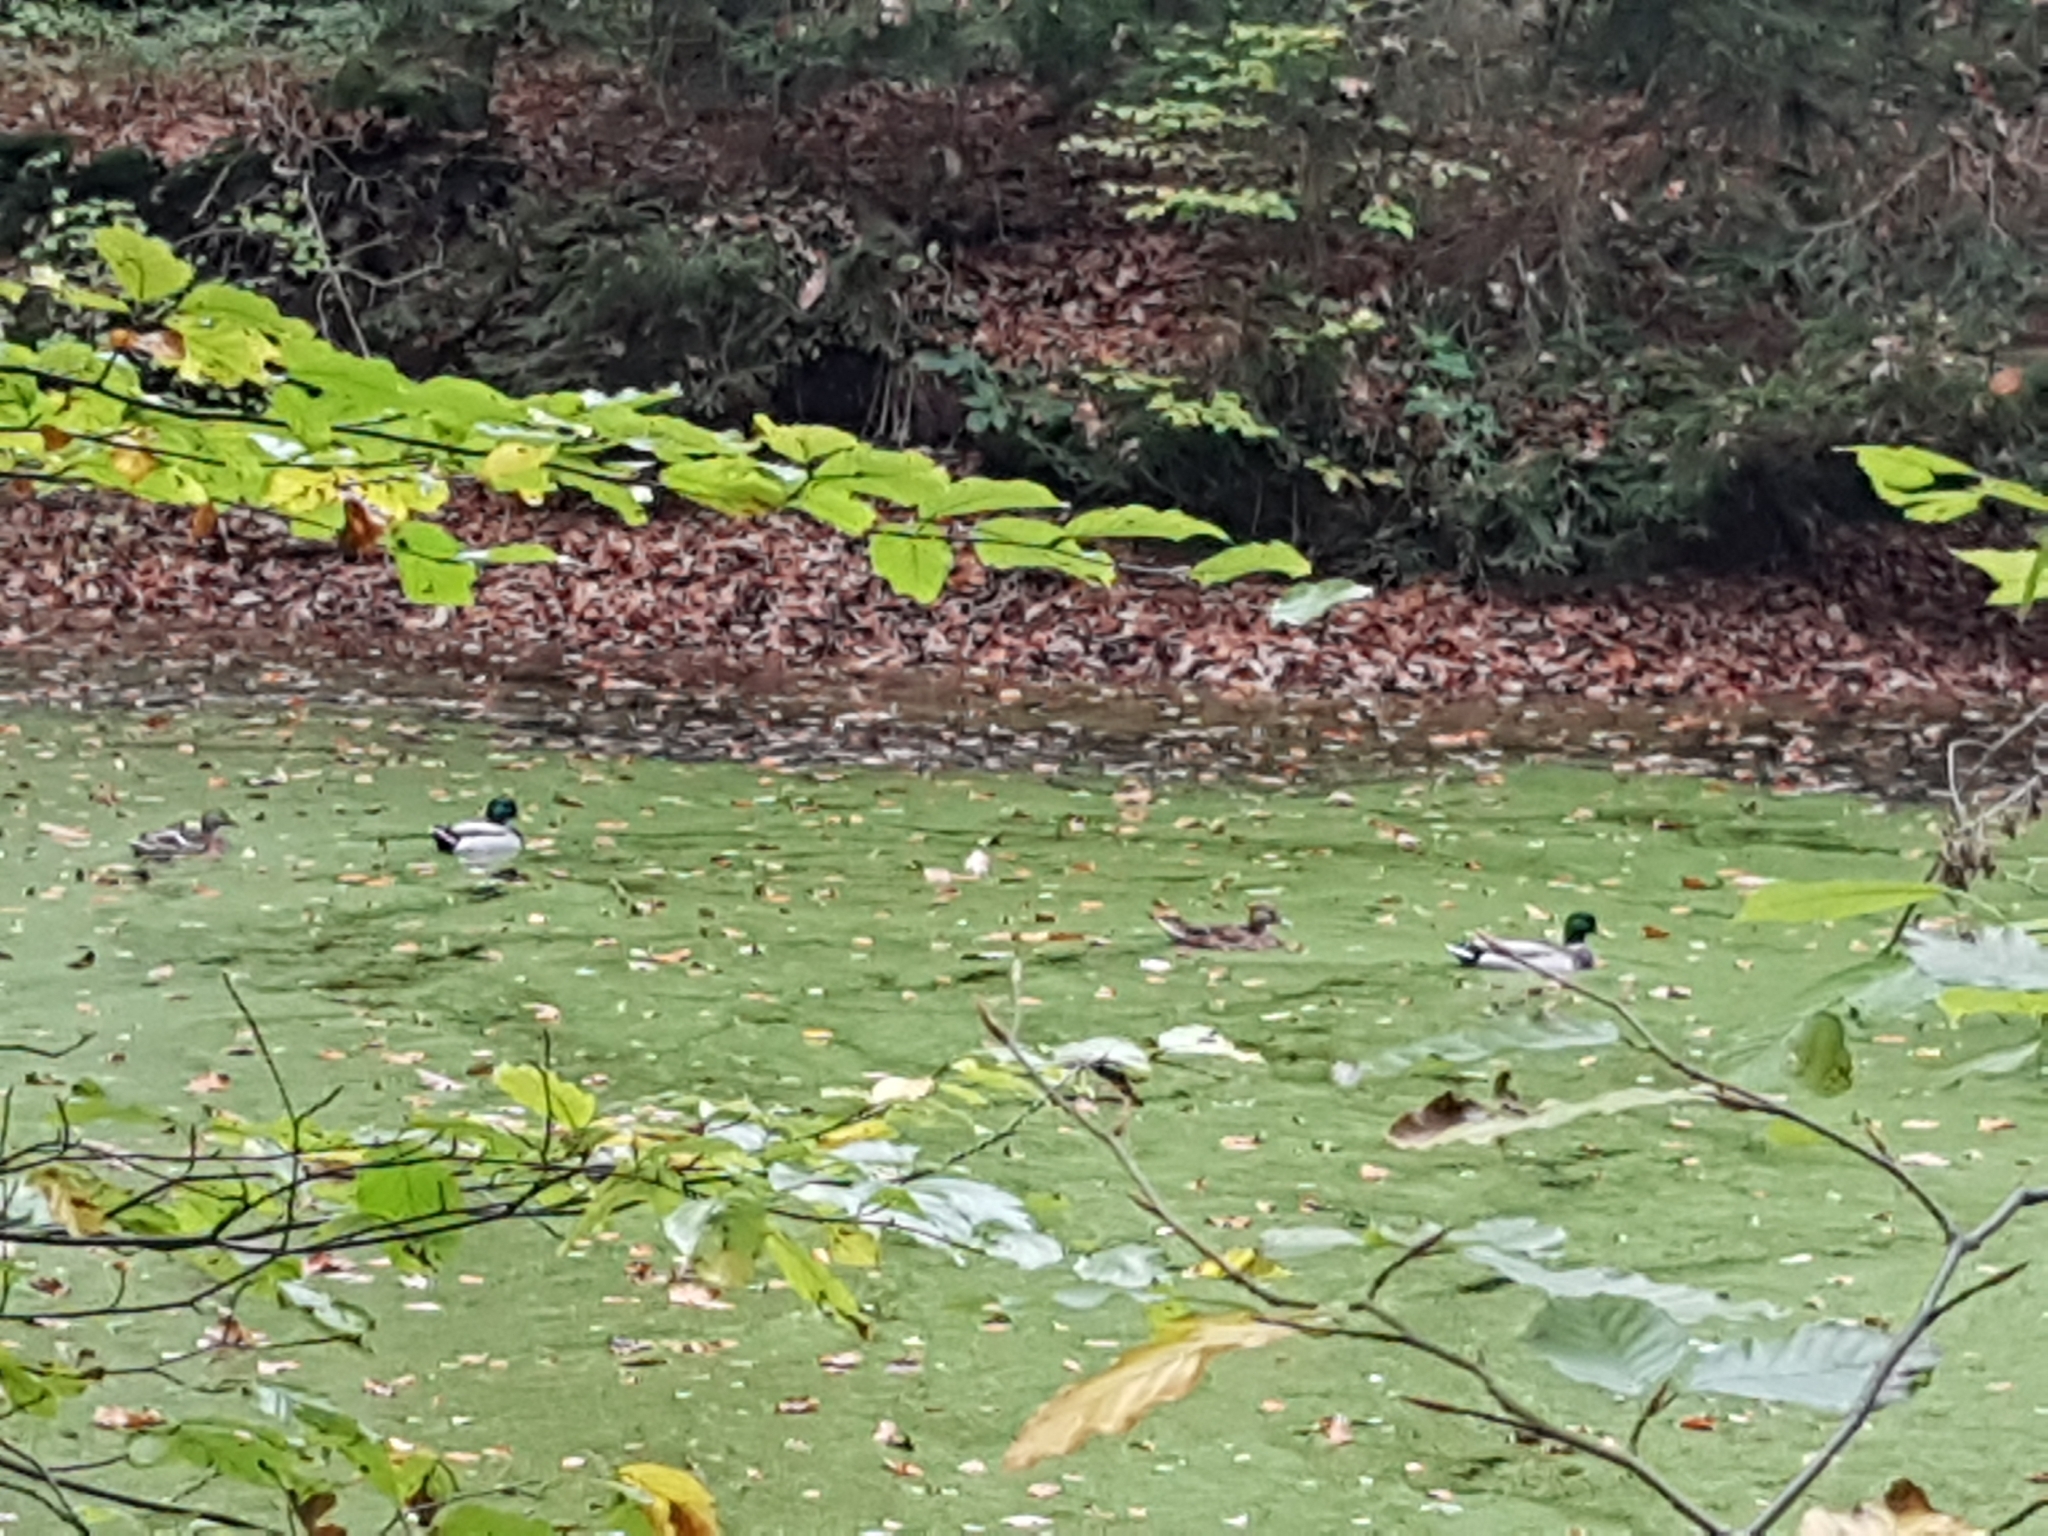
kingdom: Animalia
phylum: Chordata
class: Aves
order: Anseriformes
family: Anatidae
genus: Anas
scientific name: Anas platyrhynchos
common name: Mallard
